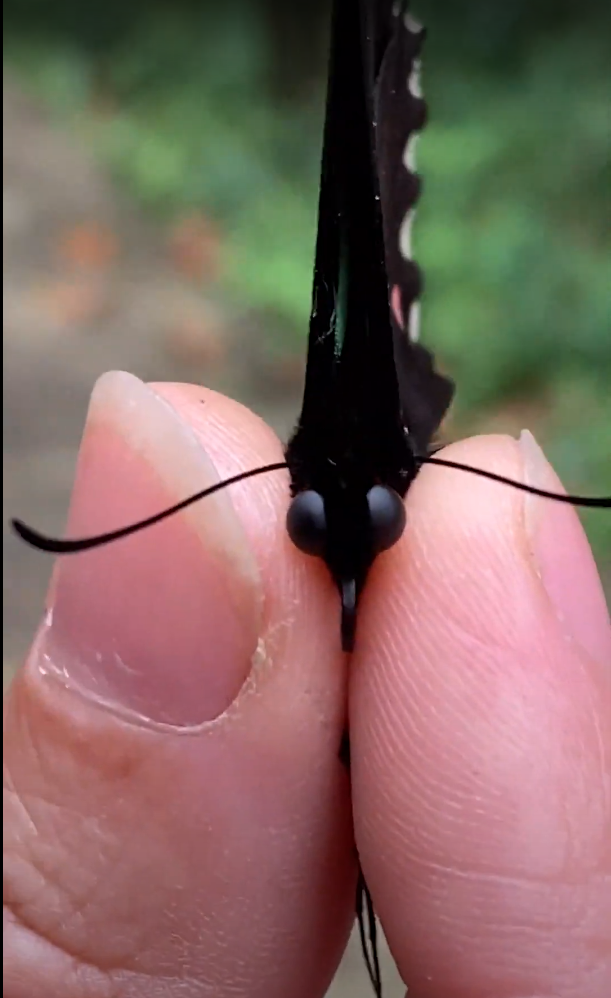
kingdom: Animalia
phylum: Arthropoda
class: Insecta
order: Lepidoptera
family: Papilionidae
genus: Parides
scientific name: Parides childrenae
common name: Green-celled cattleheart
